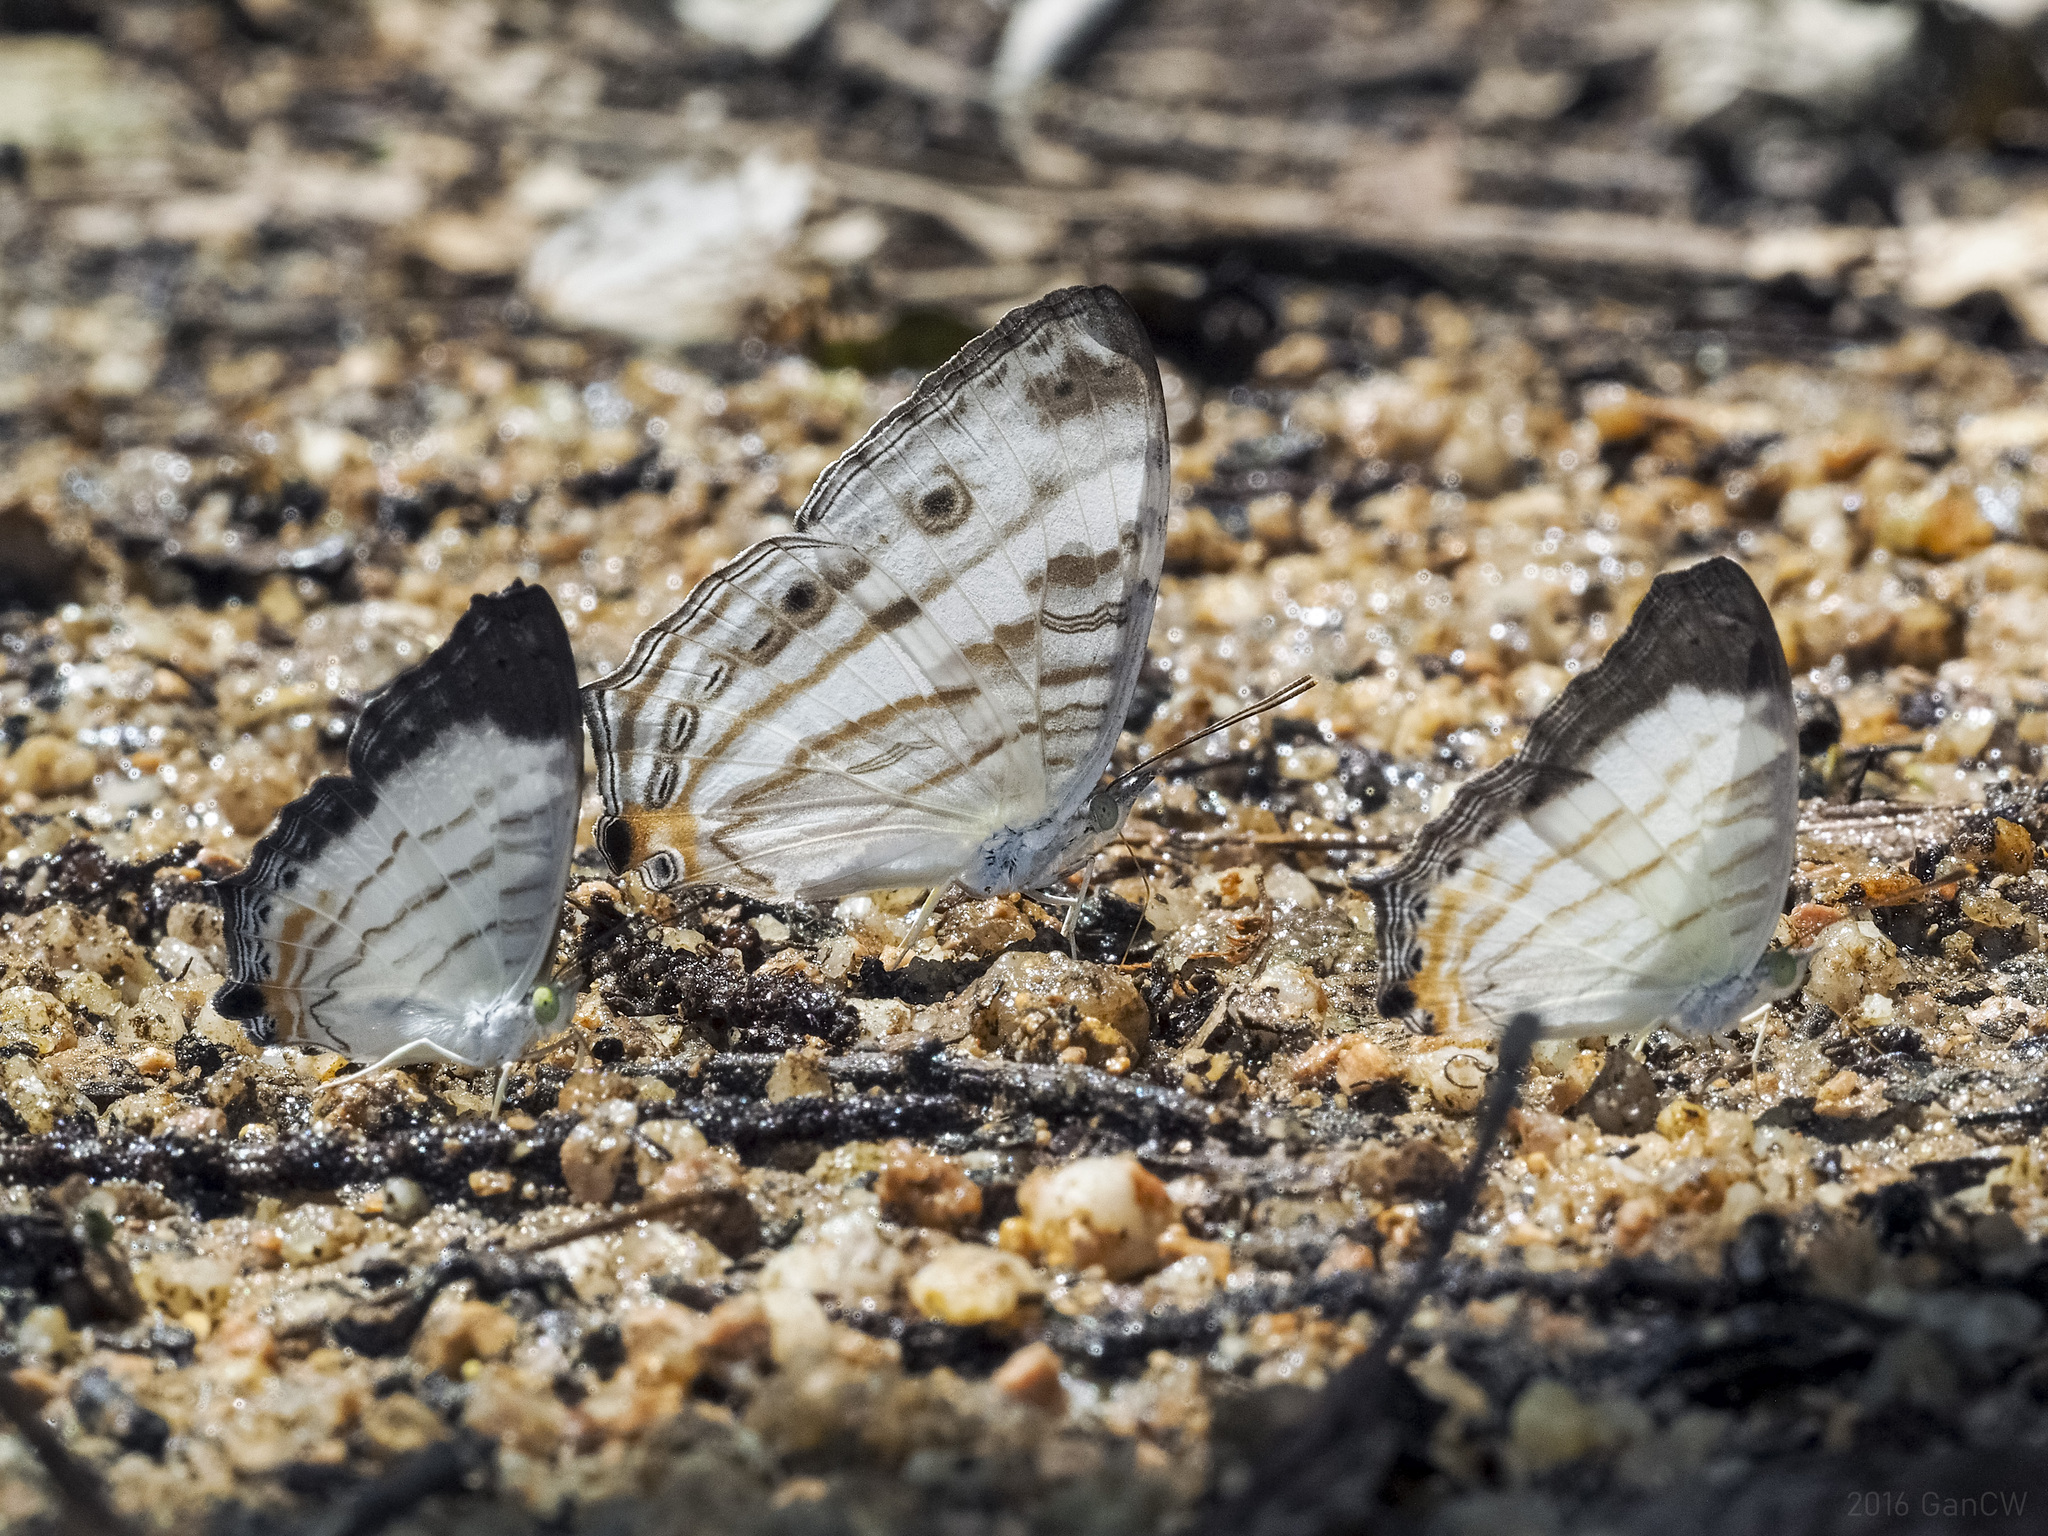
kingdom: Animalia
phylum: Arthropoda
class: Insecta
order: Lepidoptera
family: Nymphalidae
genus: Cyrestis
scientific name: Cyrestis themire
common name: Little mapwing
